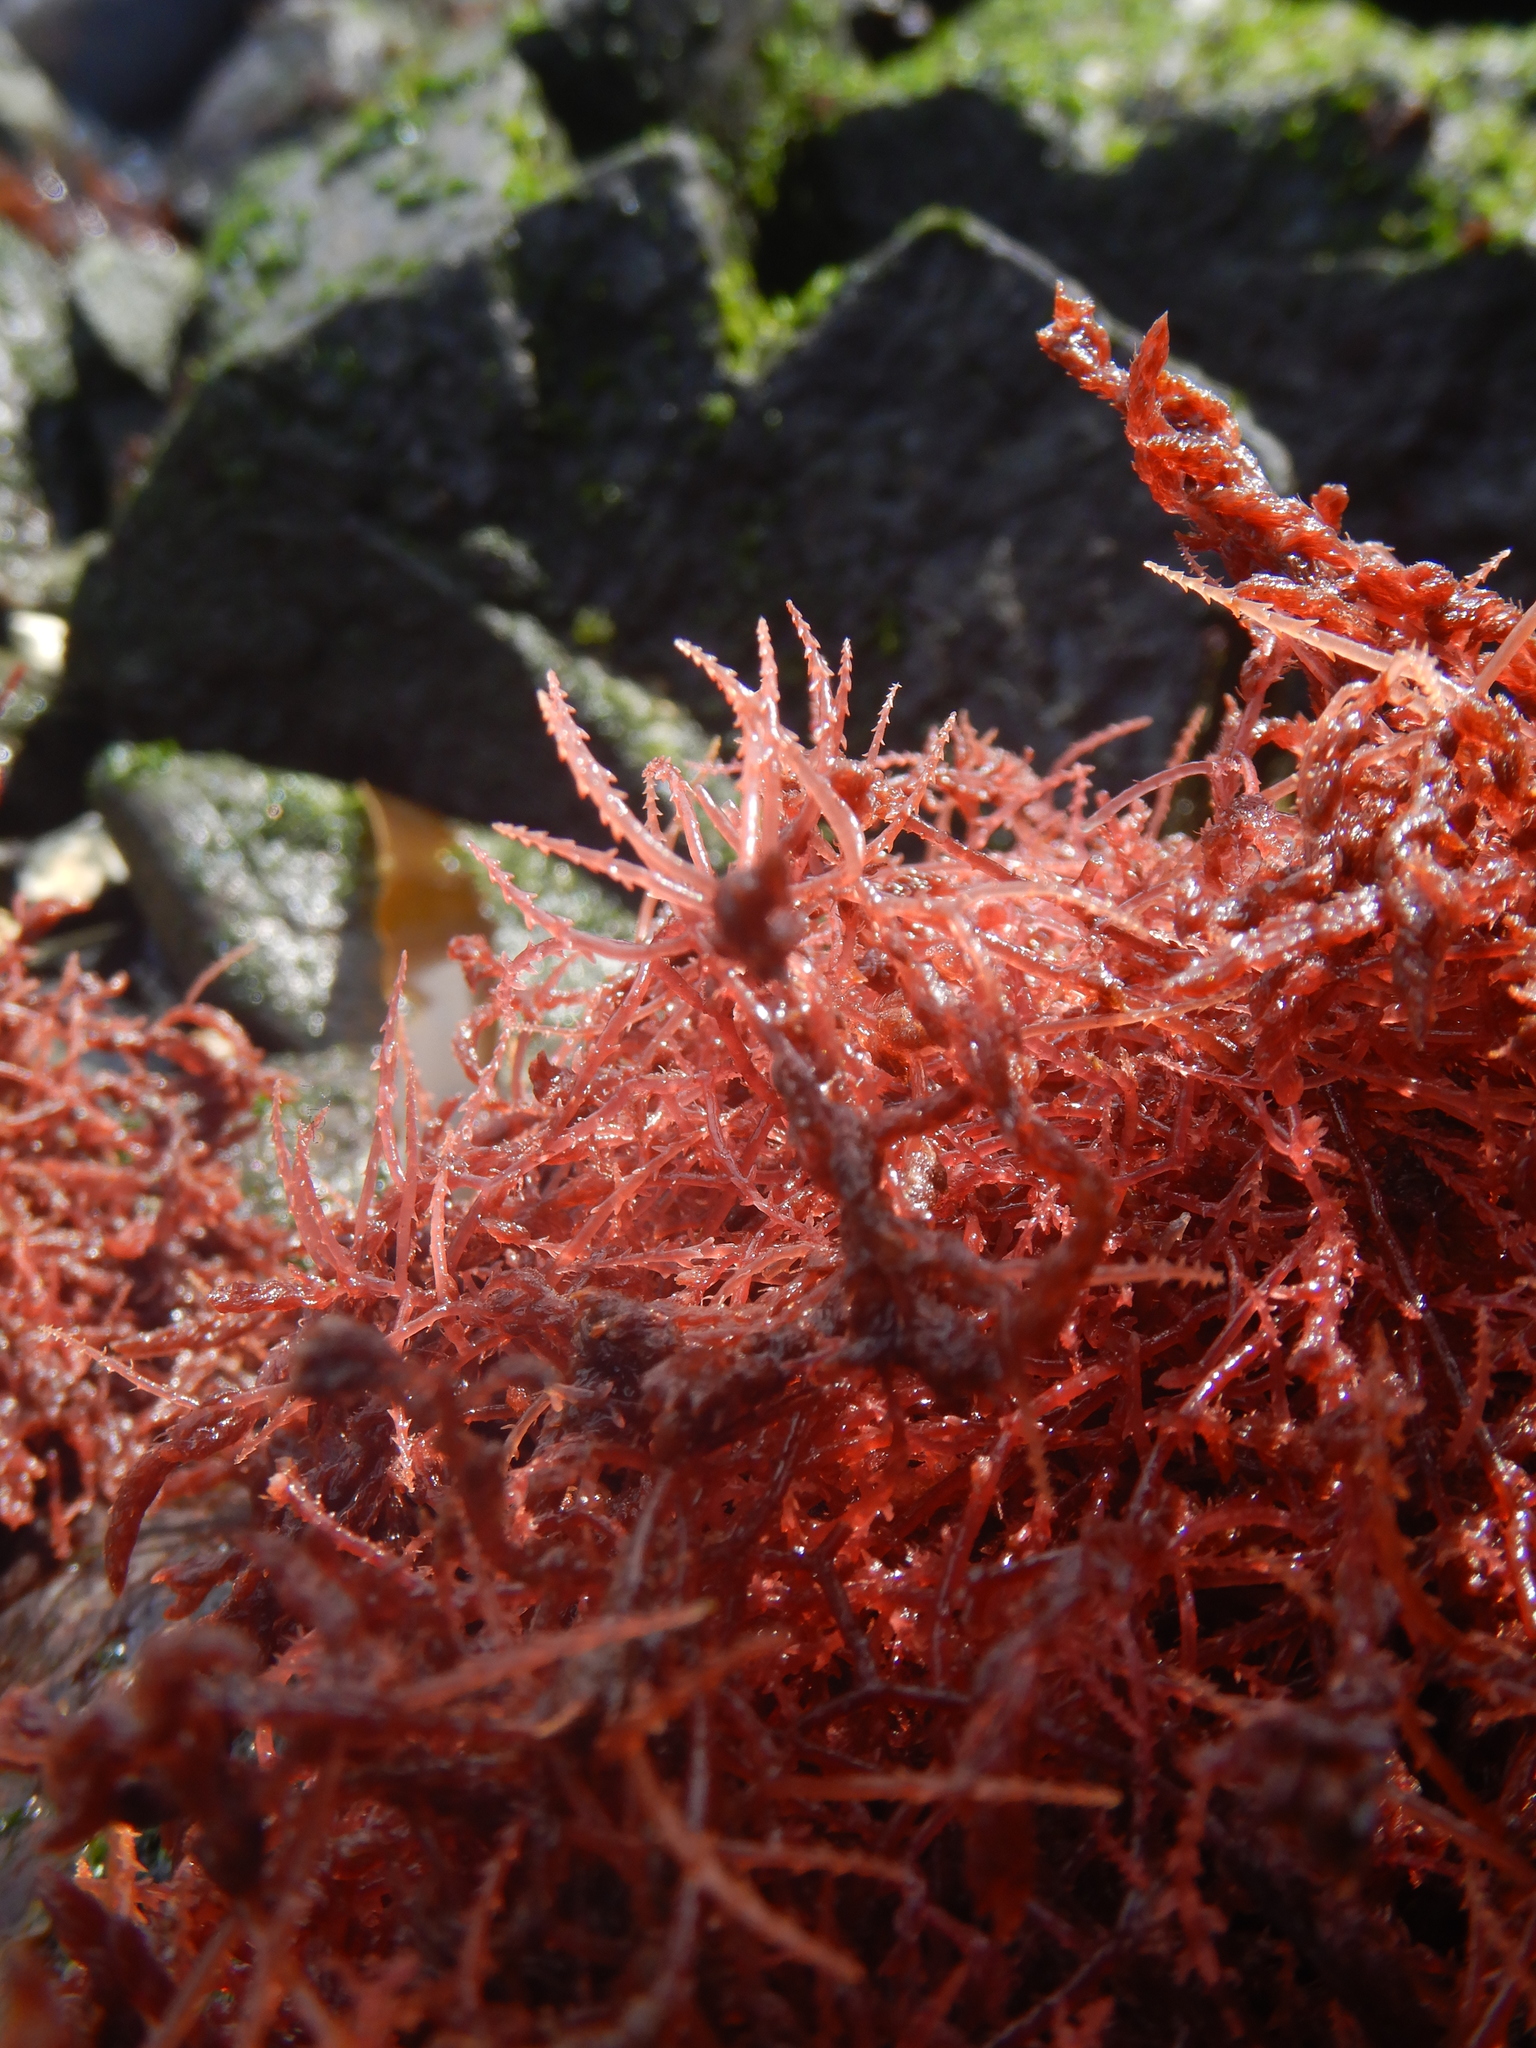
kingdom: Plantae
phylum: Rhodophyta
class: Florideophyceae
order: Bonnemaisoniales
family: Bonnemaisoniaceae
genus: Asparagopsis
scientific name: Asparagopsis armata
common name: Harpoon weed
